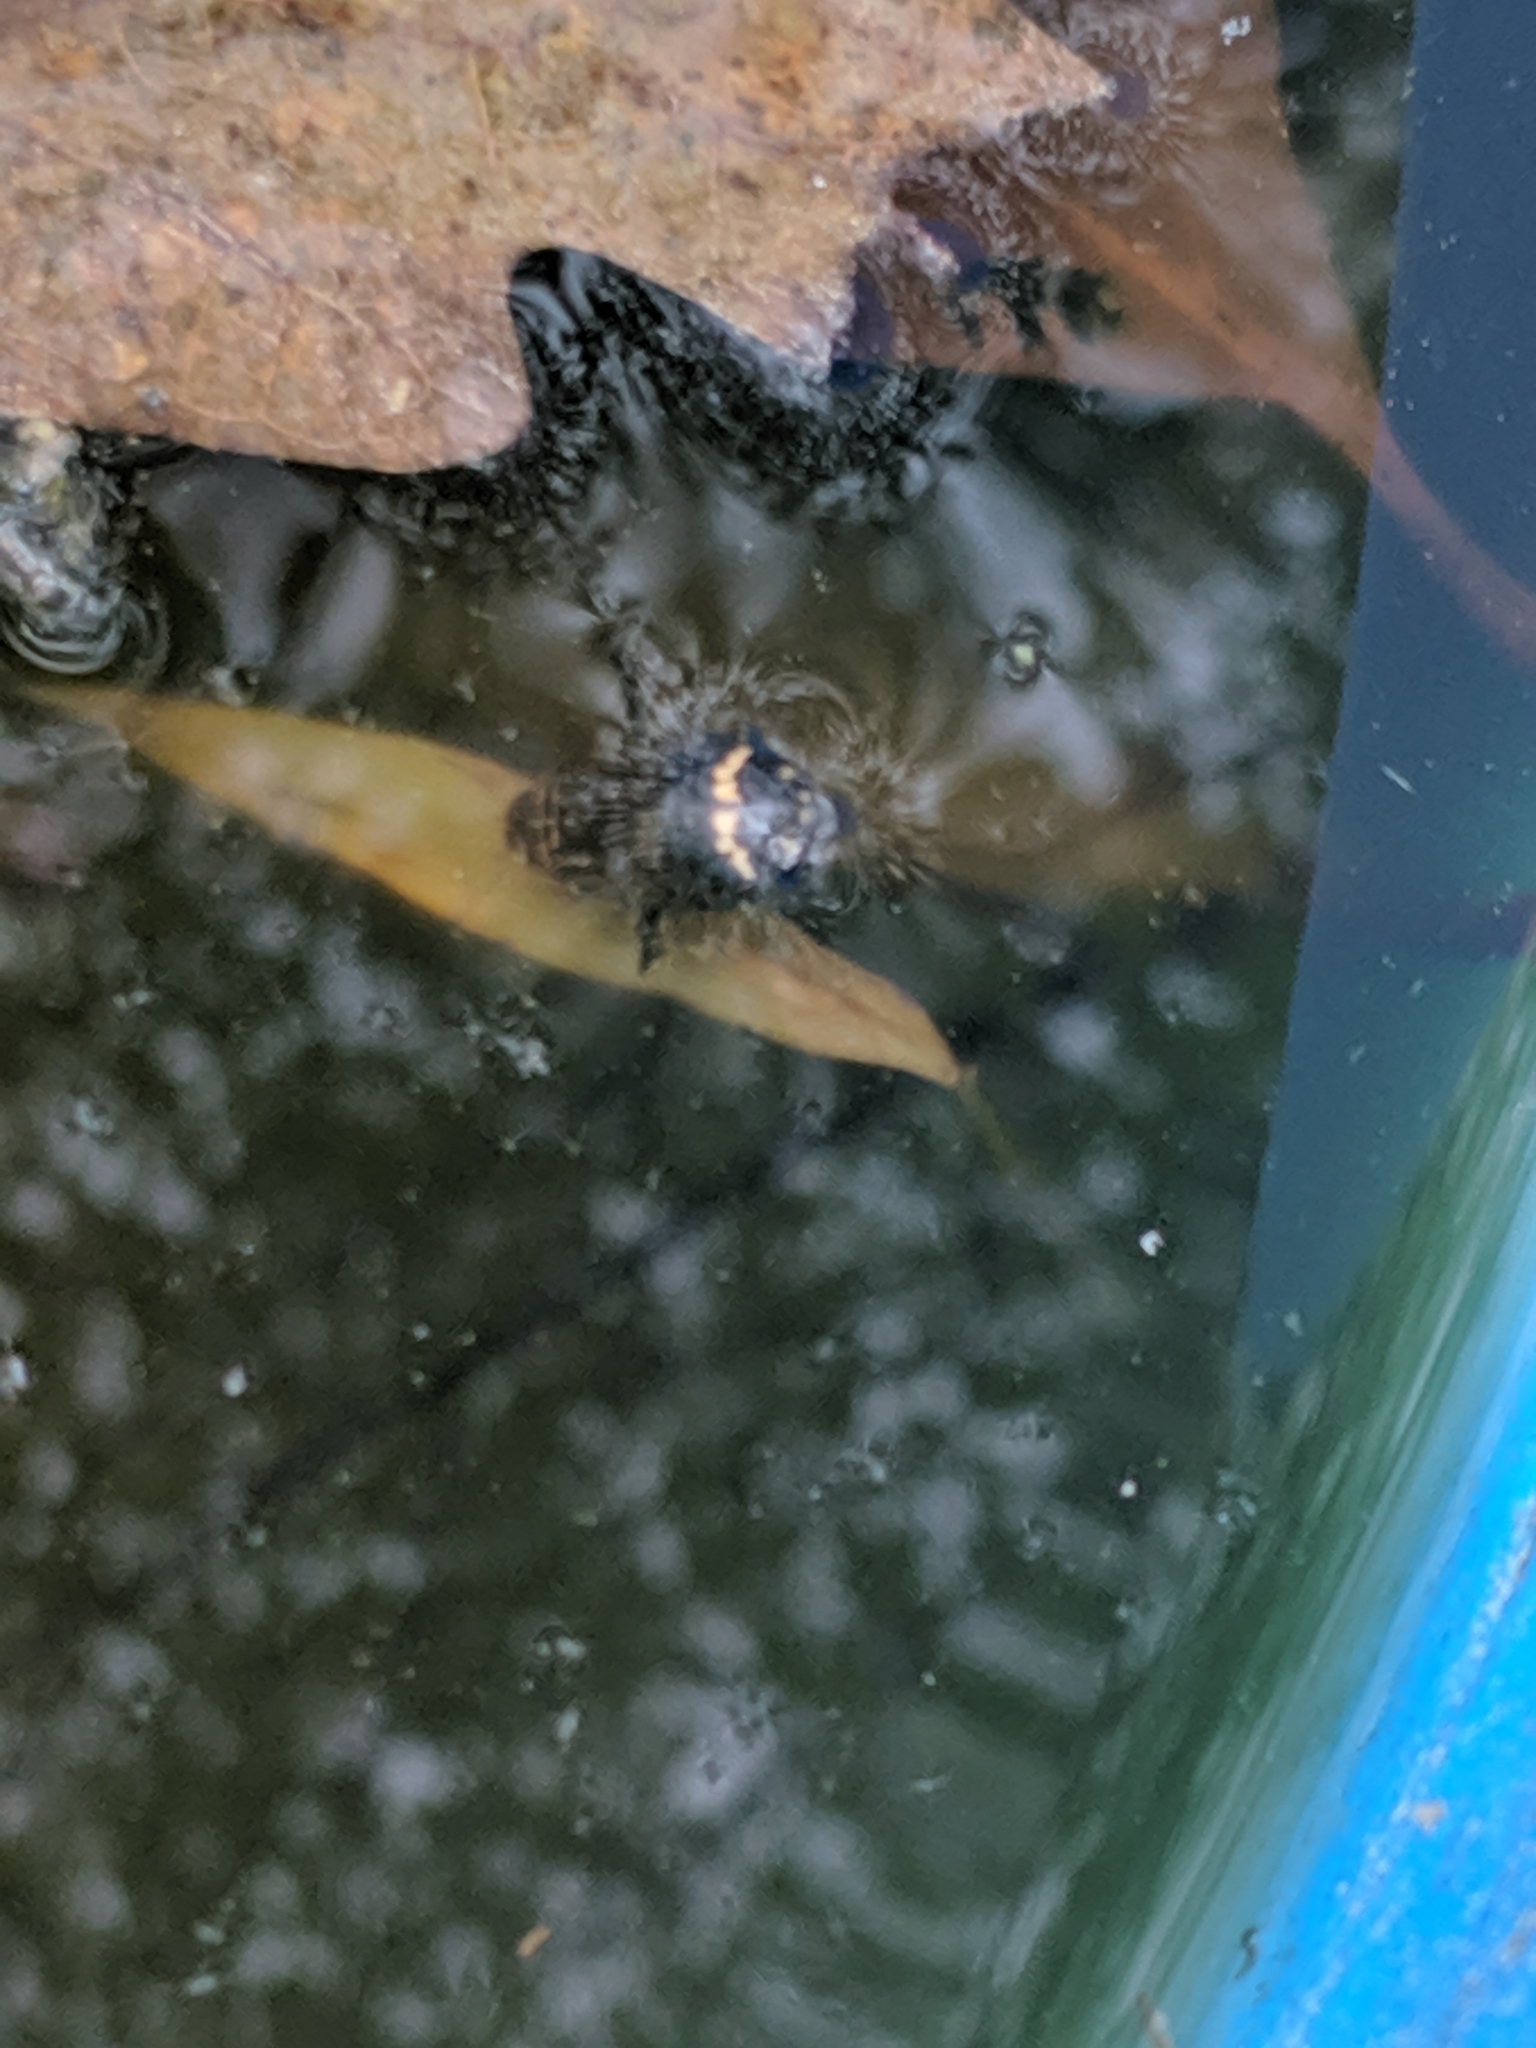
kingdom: Animalia
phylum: Arthropoda
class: Insecta
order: Coleoptera
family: Dytiscidae
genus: Acilius
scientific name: Acilius mediatus
